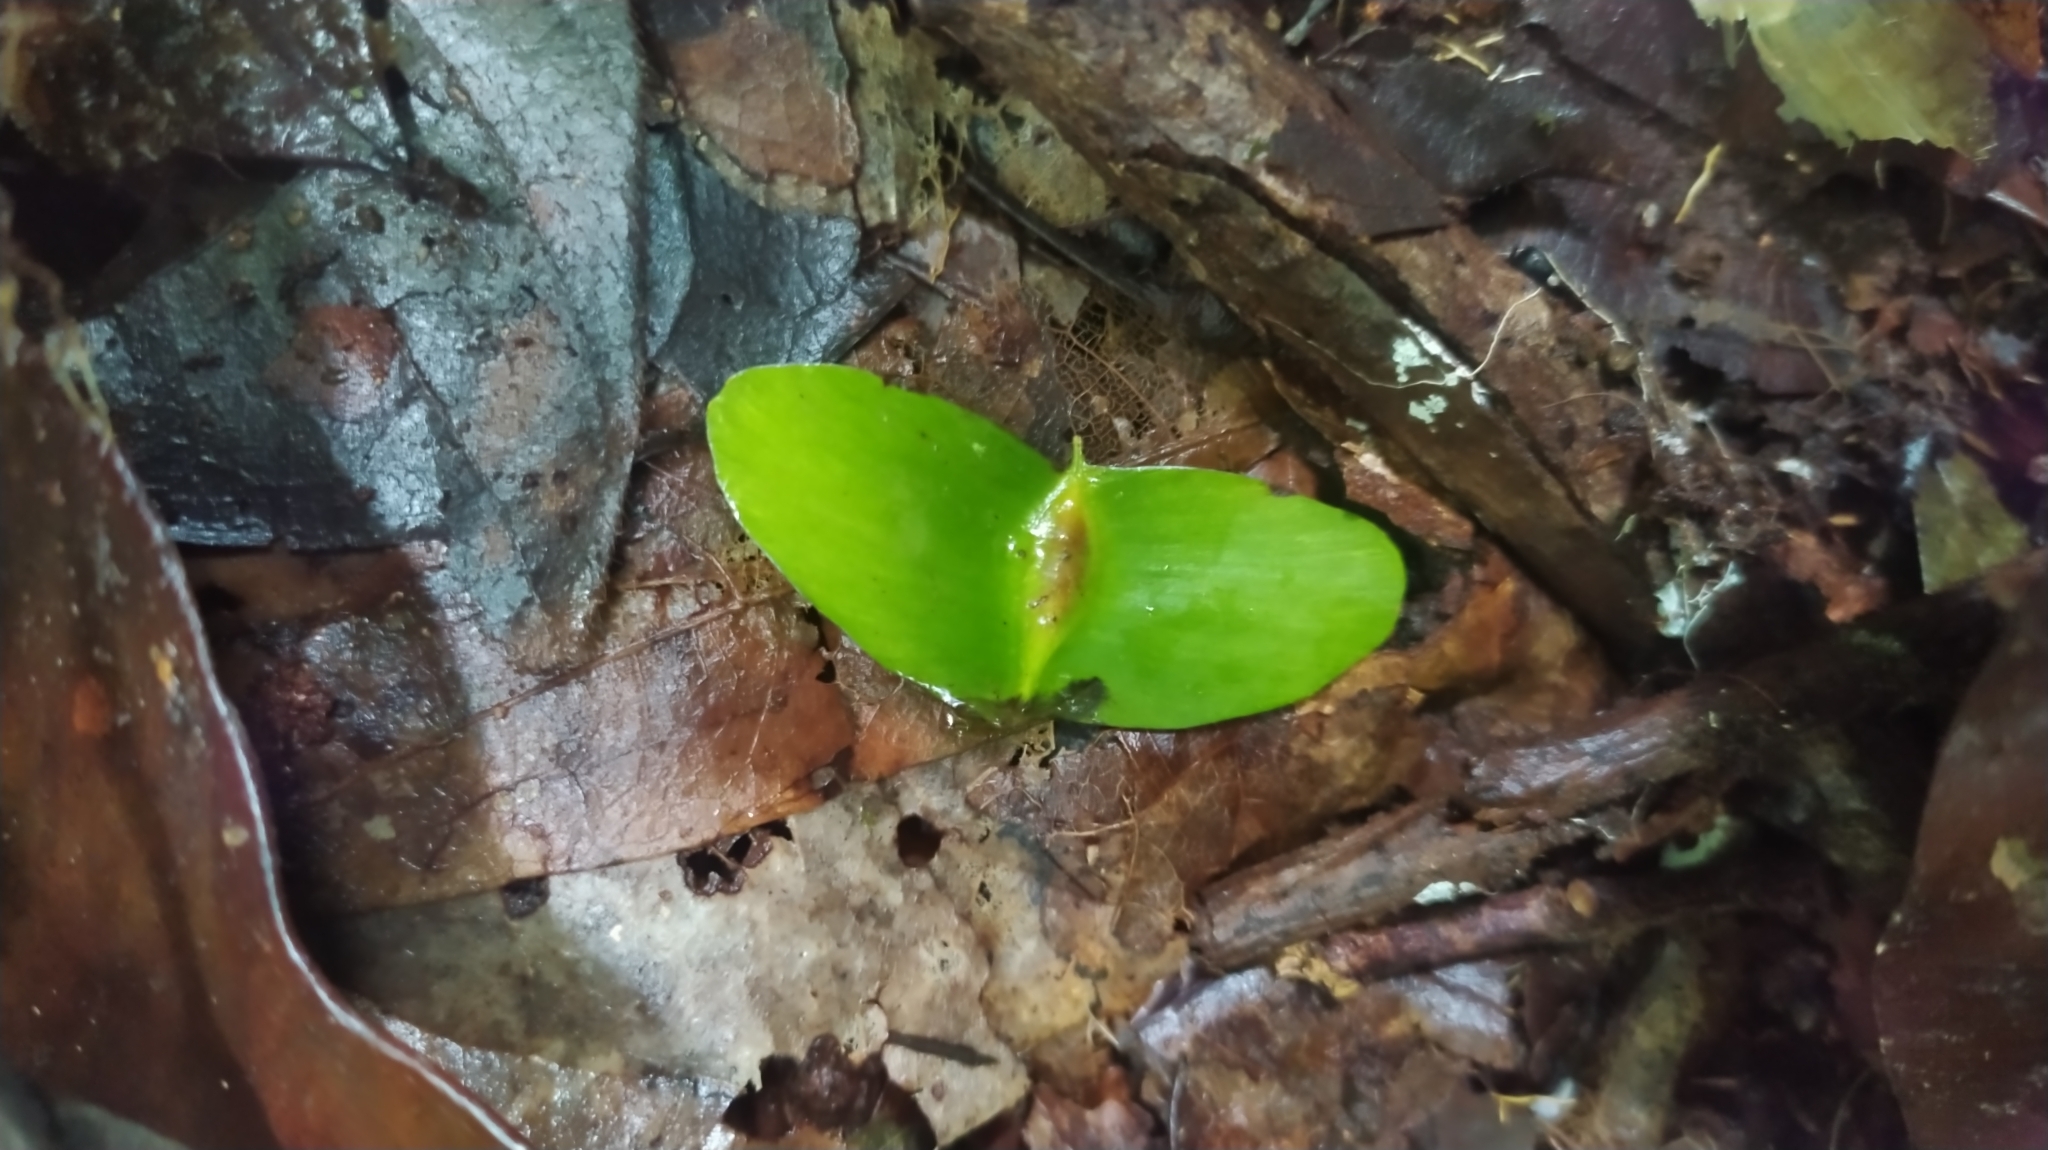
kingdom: Plantae
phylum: Tracheophyta
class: Magnoliopsida
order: Myrtales
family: Combretaceae
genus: Terminalia
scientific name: Terminalia carinata
